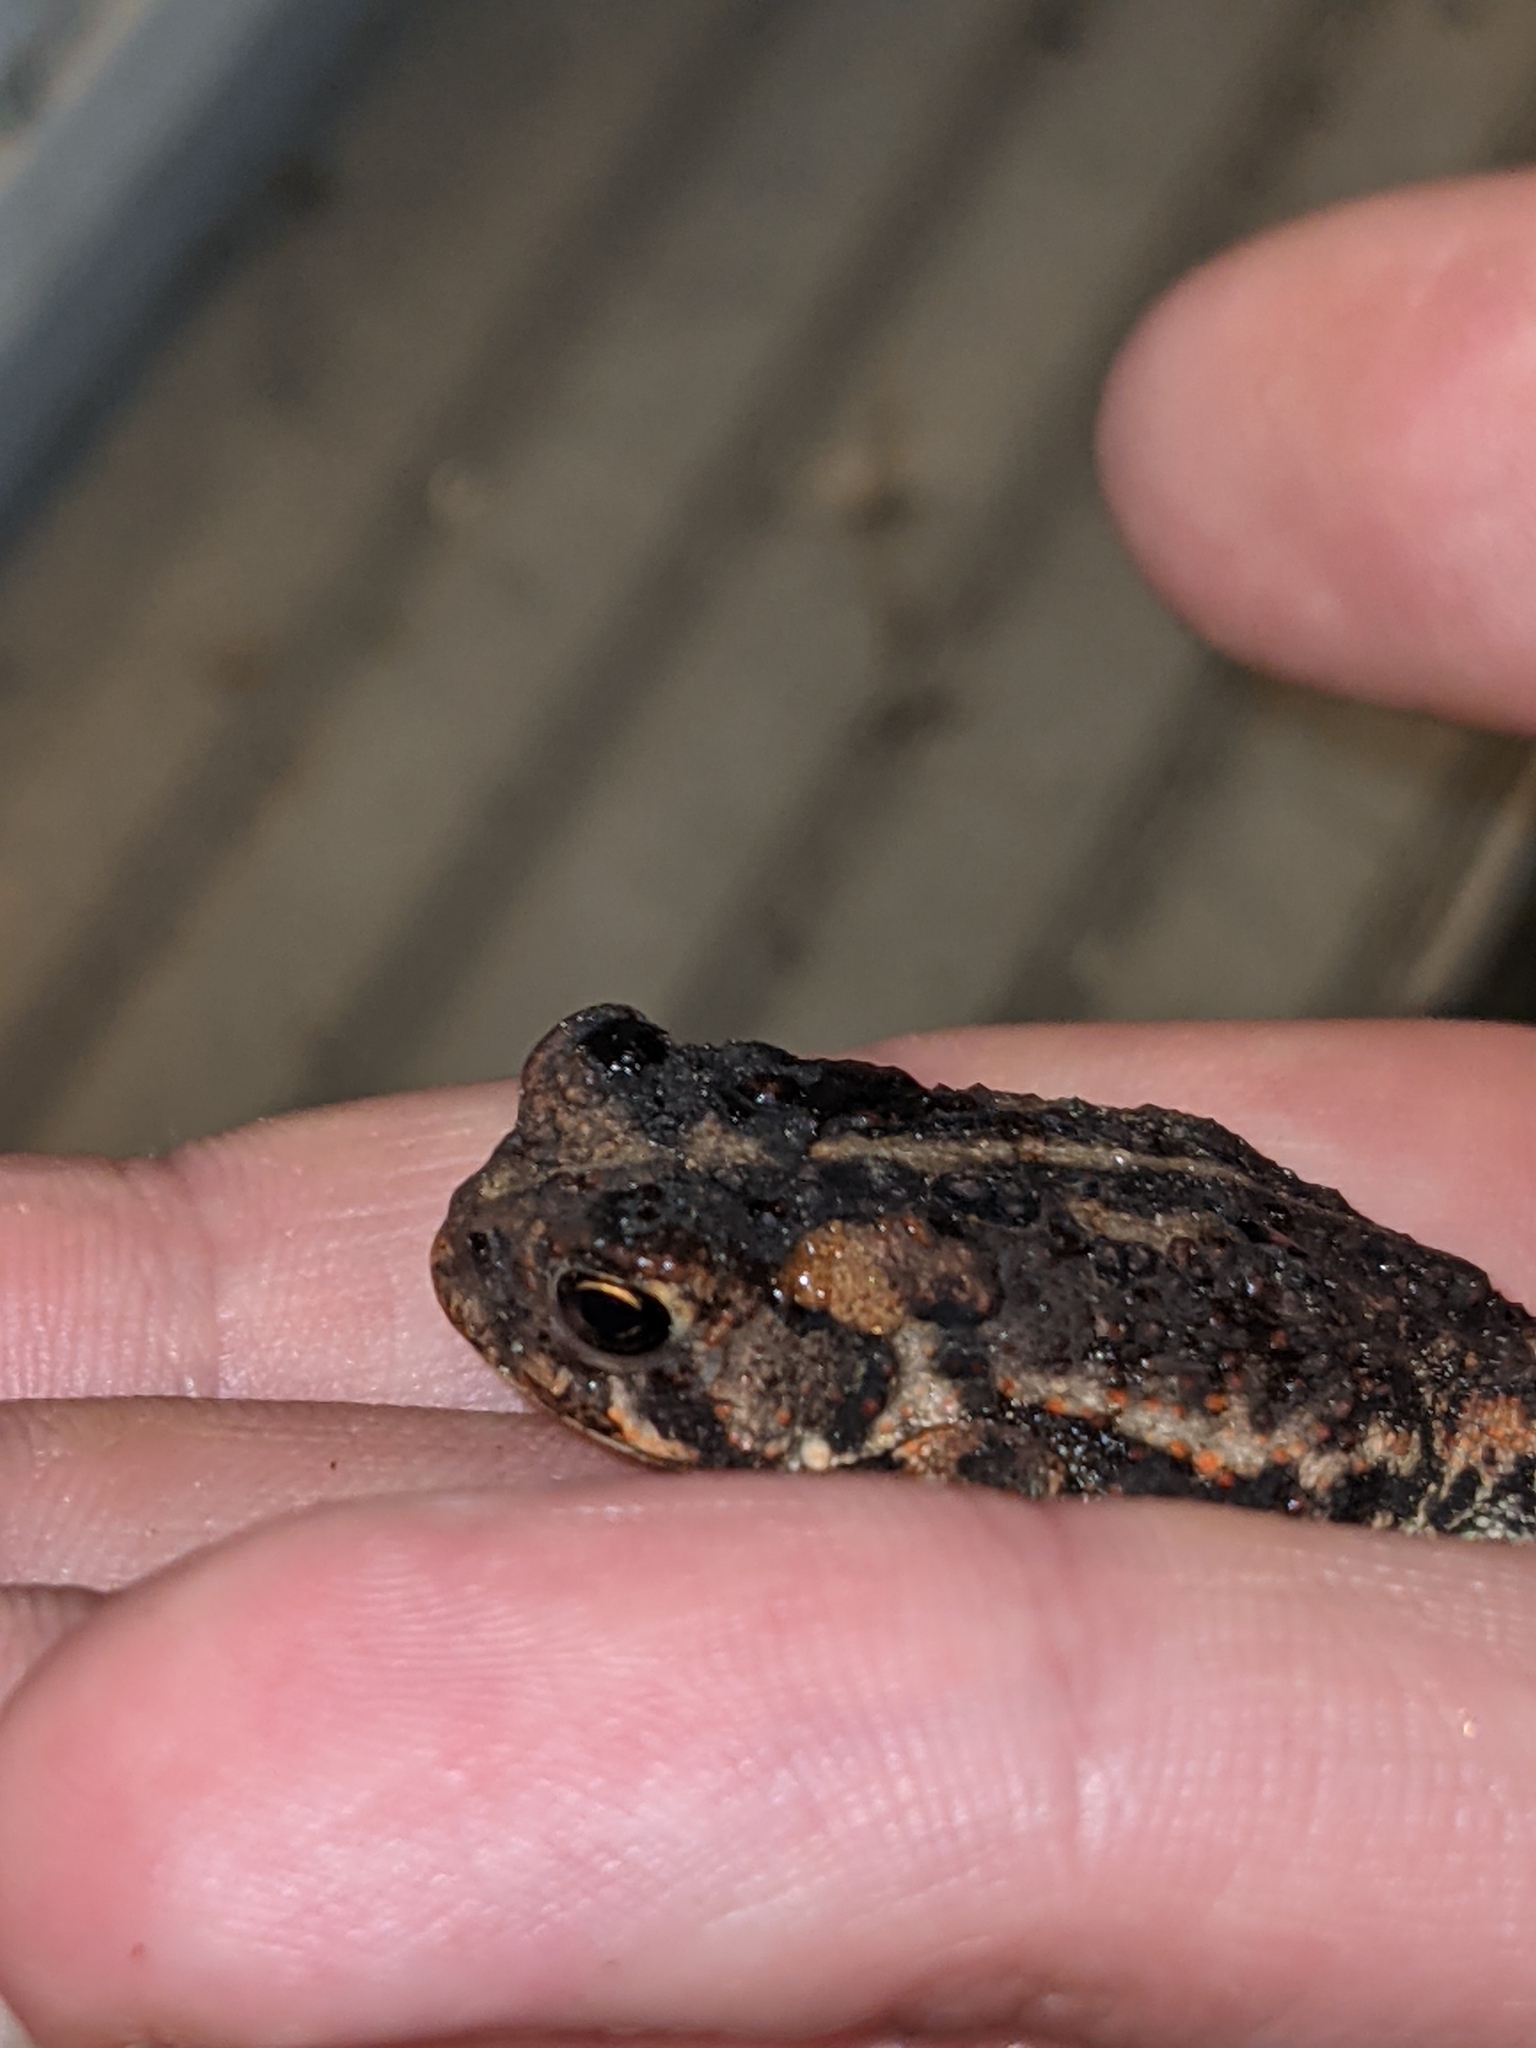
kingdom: Animalia
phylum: Chordata
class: Amphibia
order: Anura
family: Bufonidae
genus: Anaxyrus
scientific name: Anaxyrus americanus
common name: American toad
